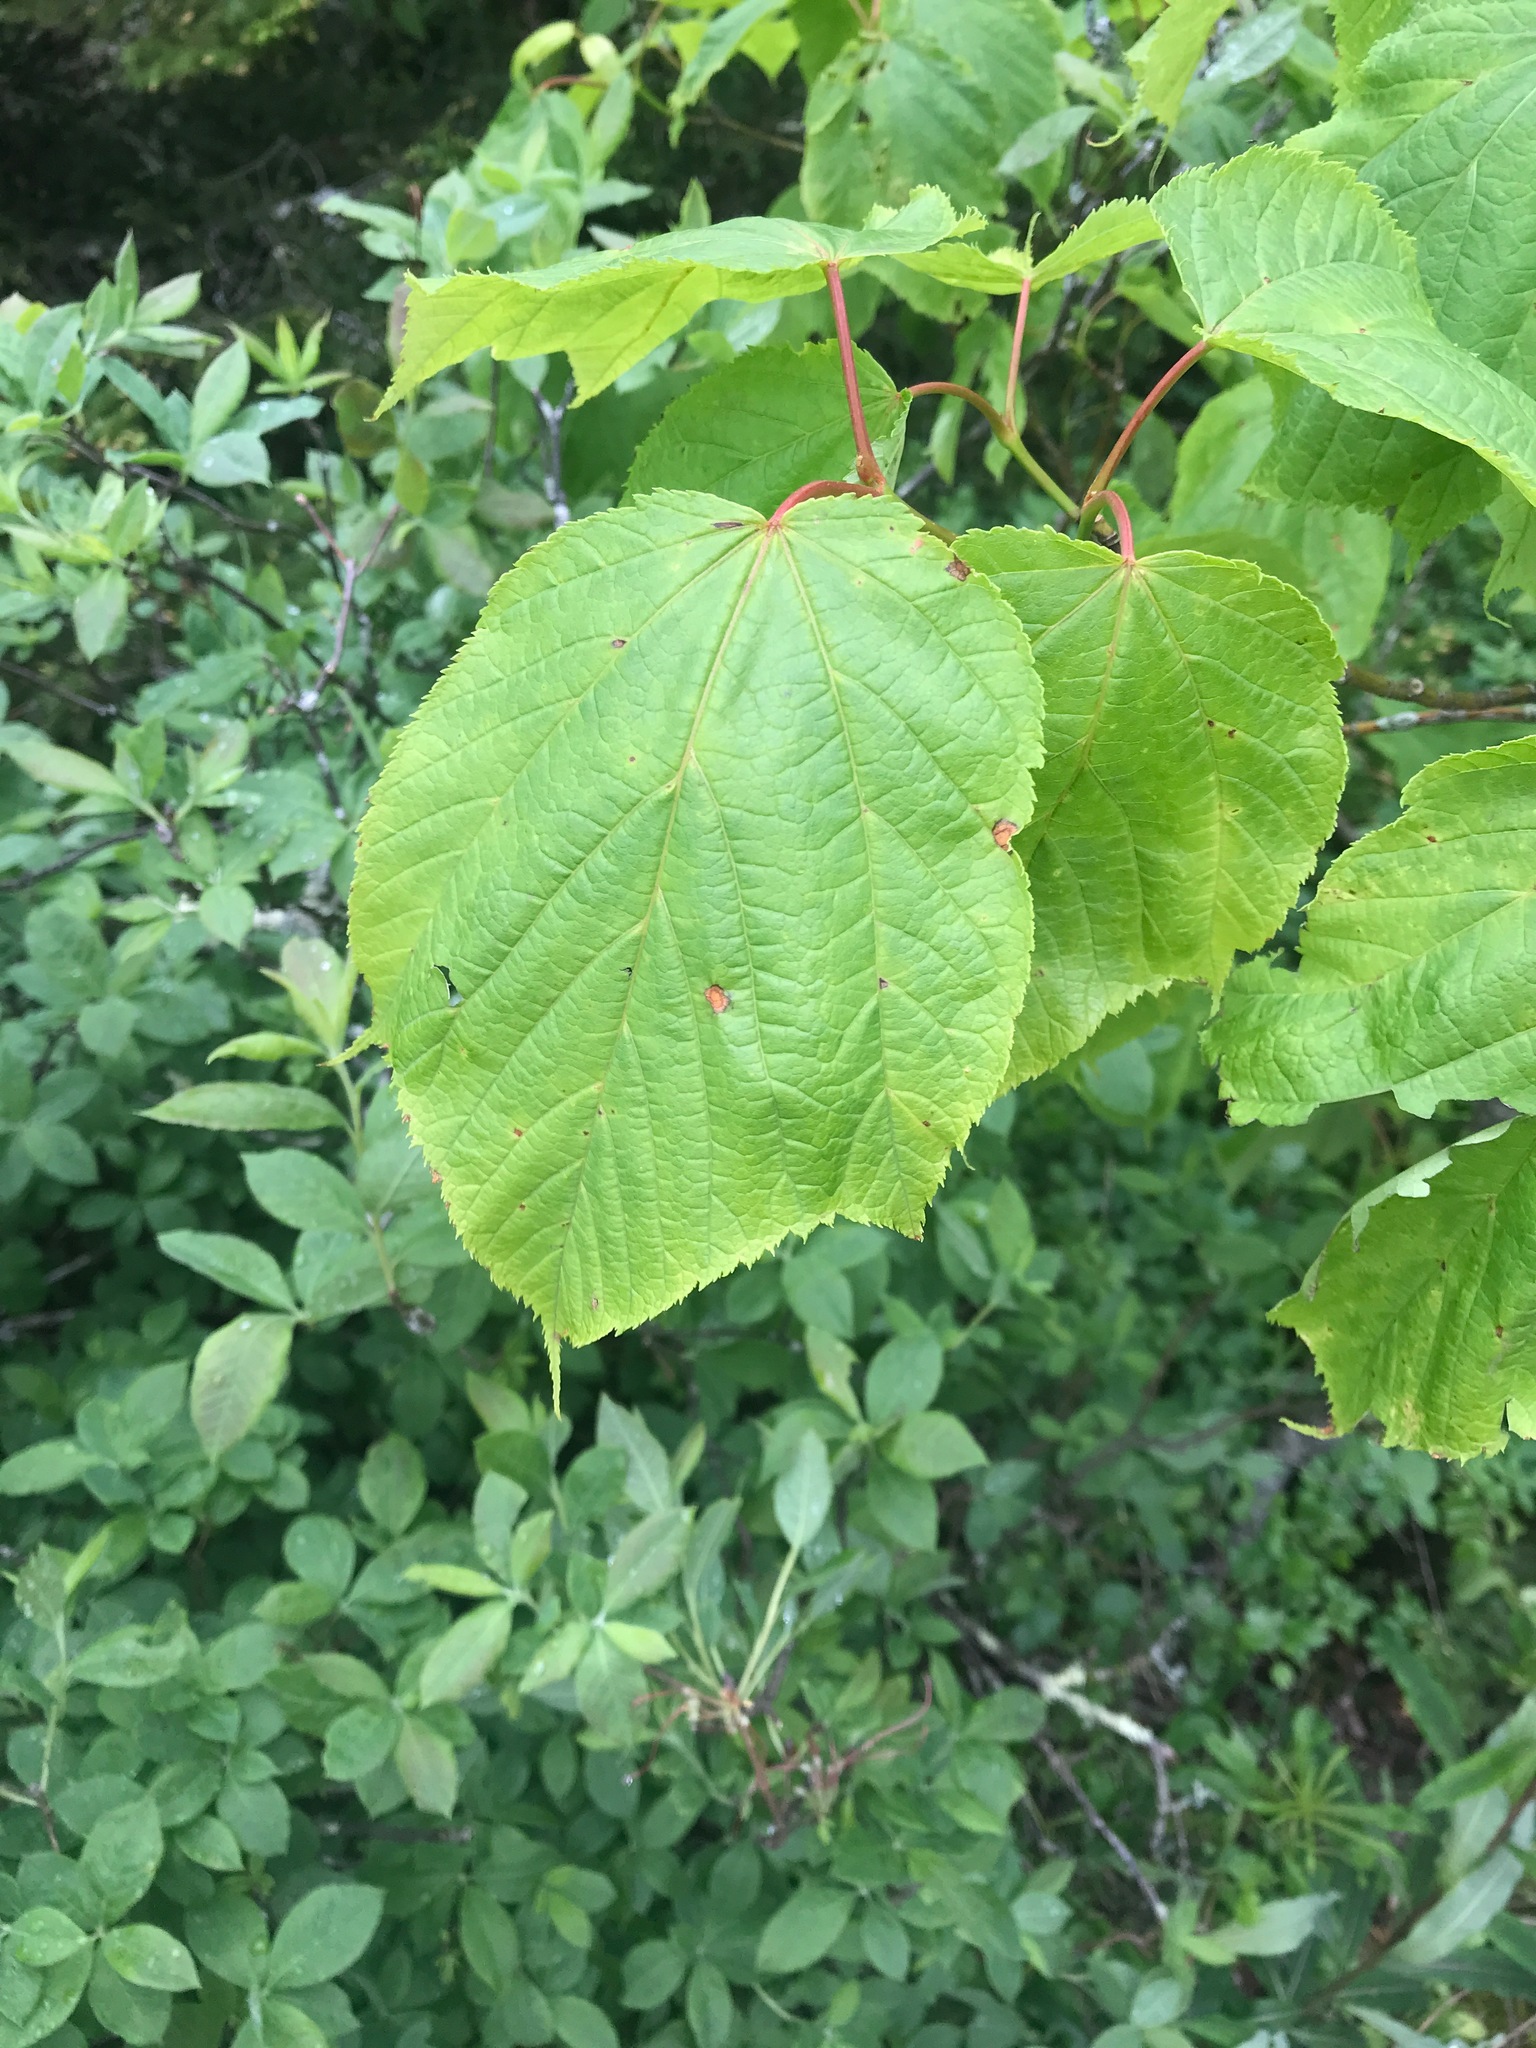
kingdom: Plantae
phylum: Tracheophyta
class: Magnoliopsida
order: Sapindales
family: Sapindaceae
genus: Acer
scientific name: Acer pensylvanicum
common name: Moosewood
